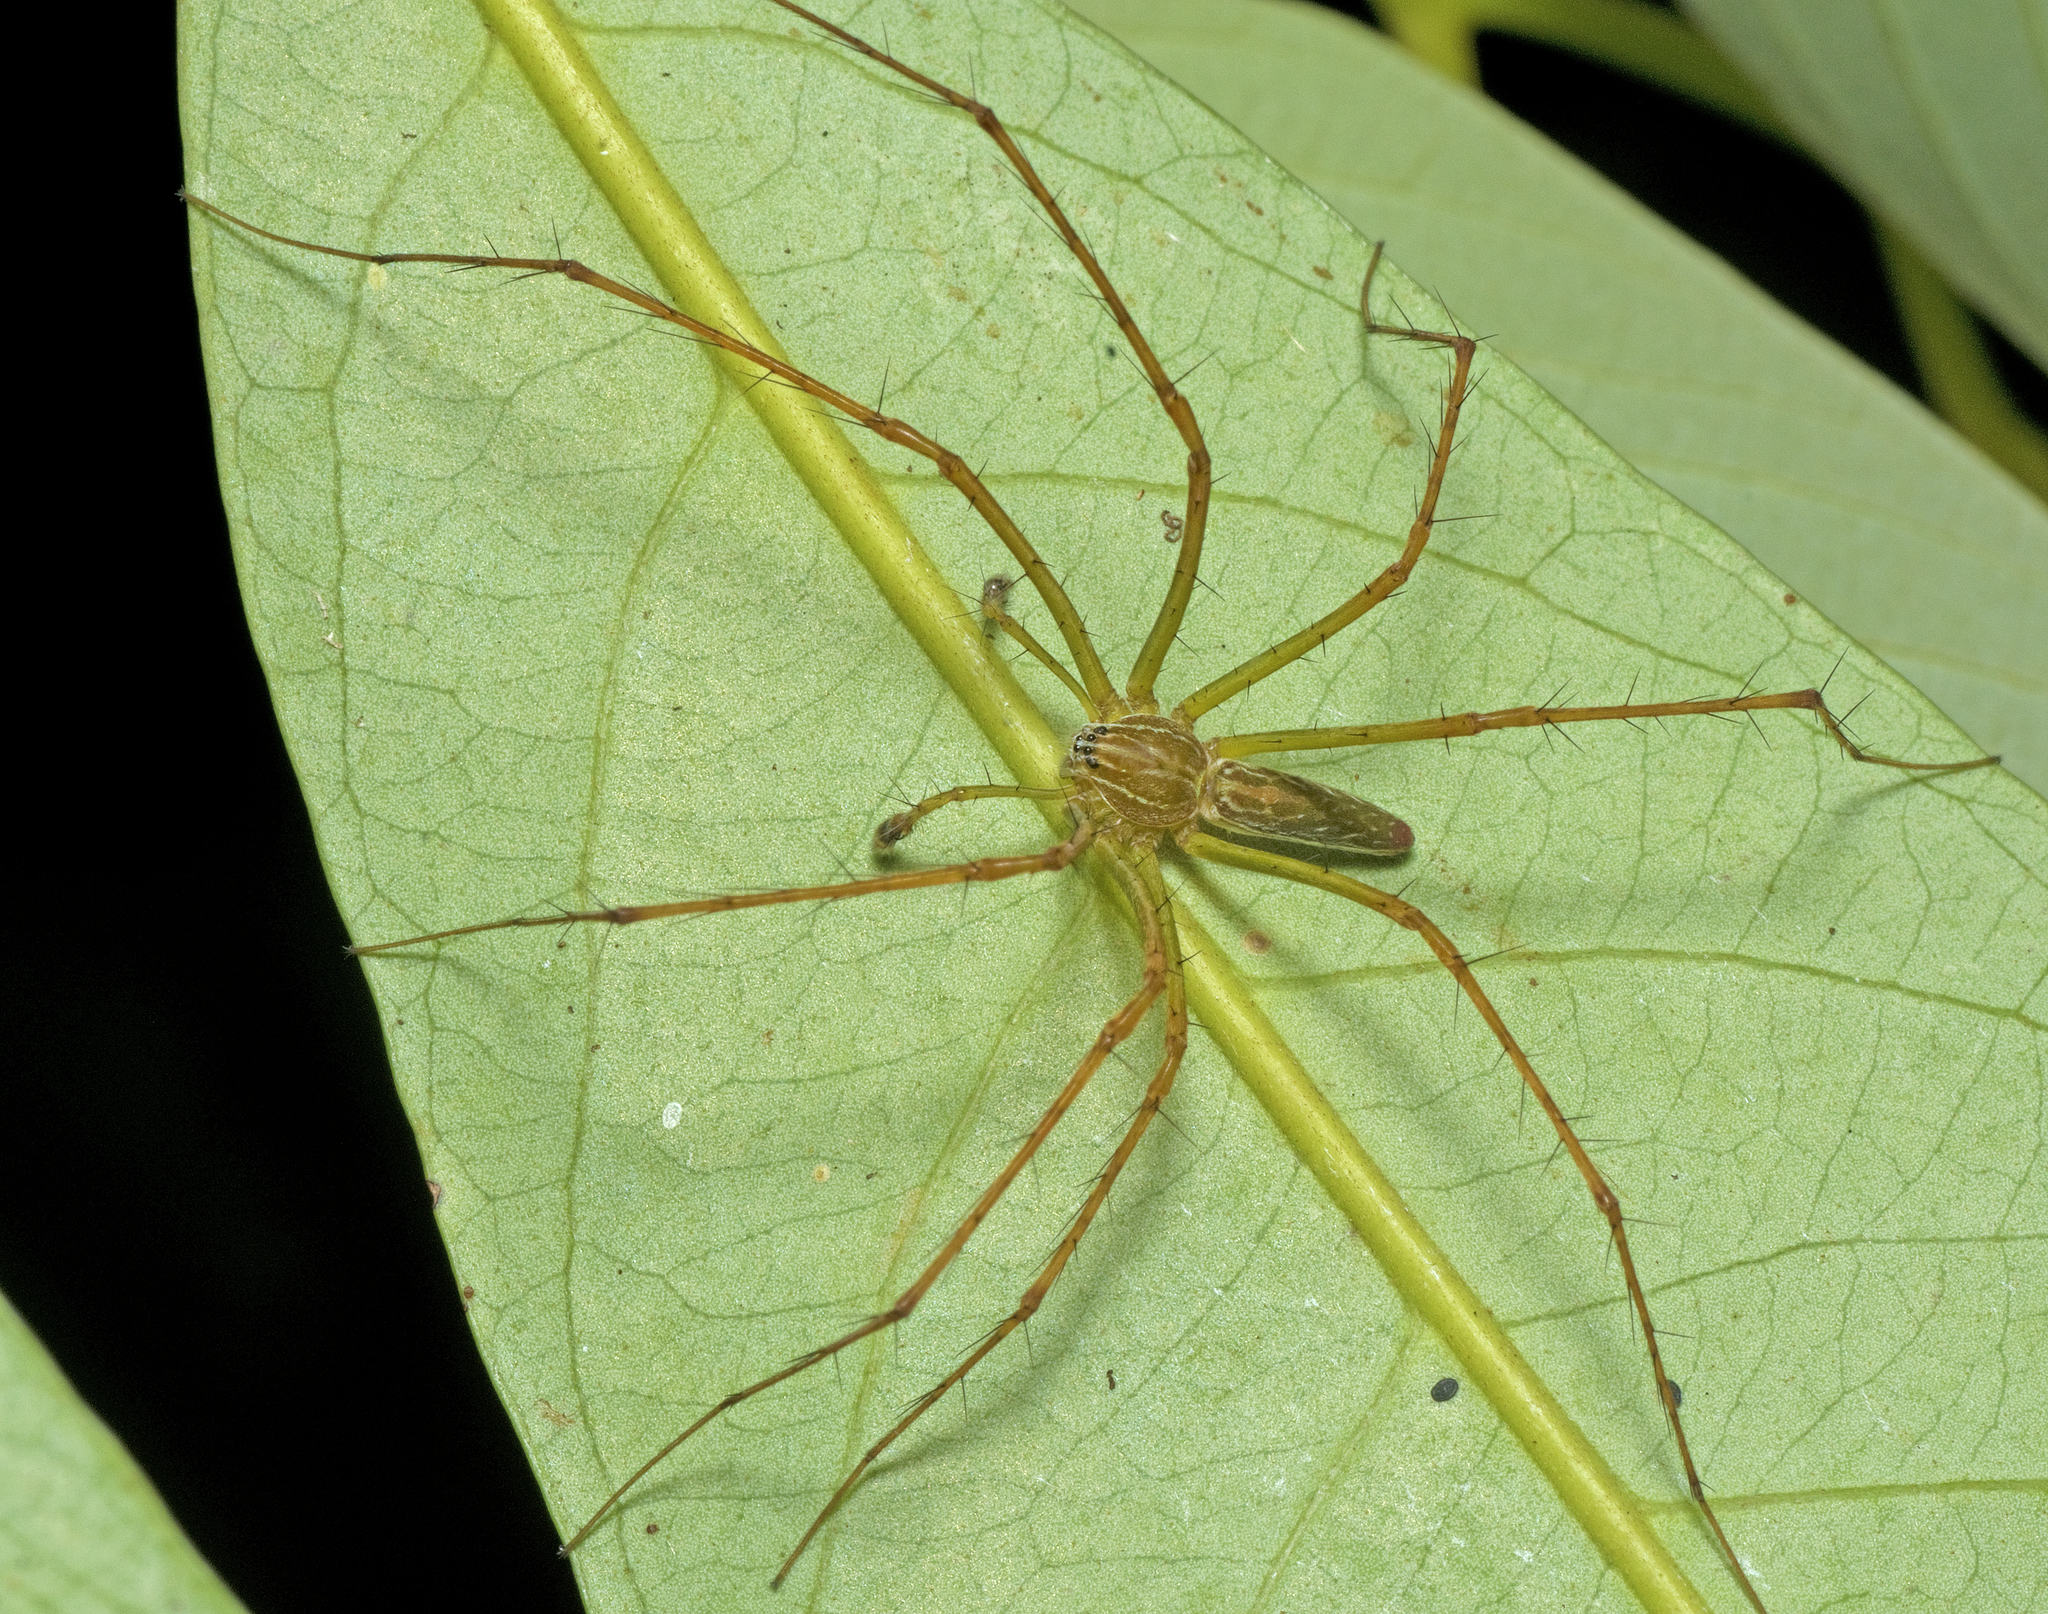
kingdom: Animalia
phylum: Arthropoda
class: Arachnida
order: Araneae
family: Pisauridae
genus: Hygropoda
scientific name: Hygropoda lineata
